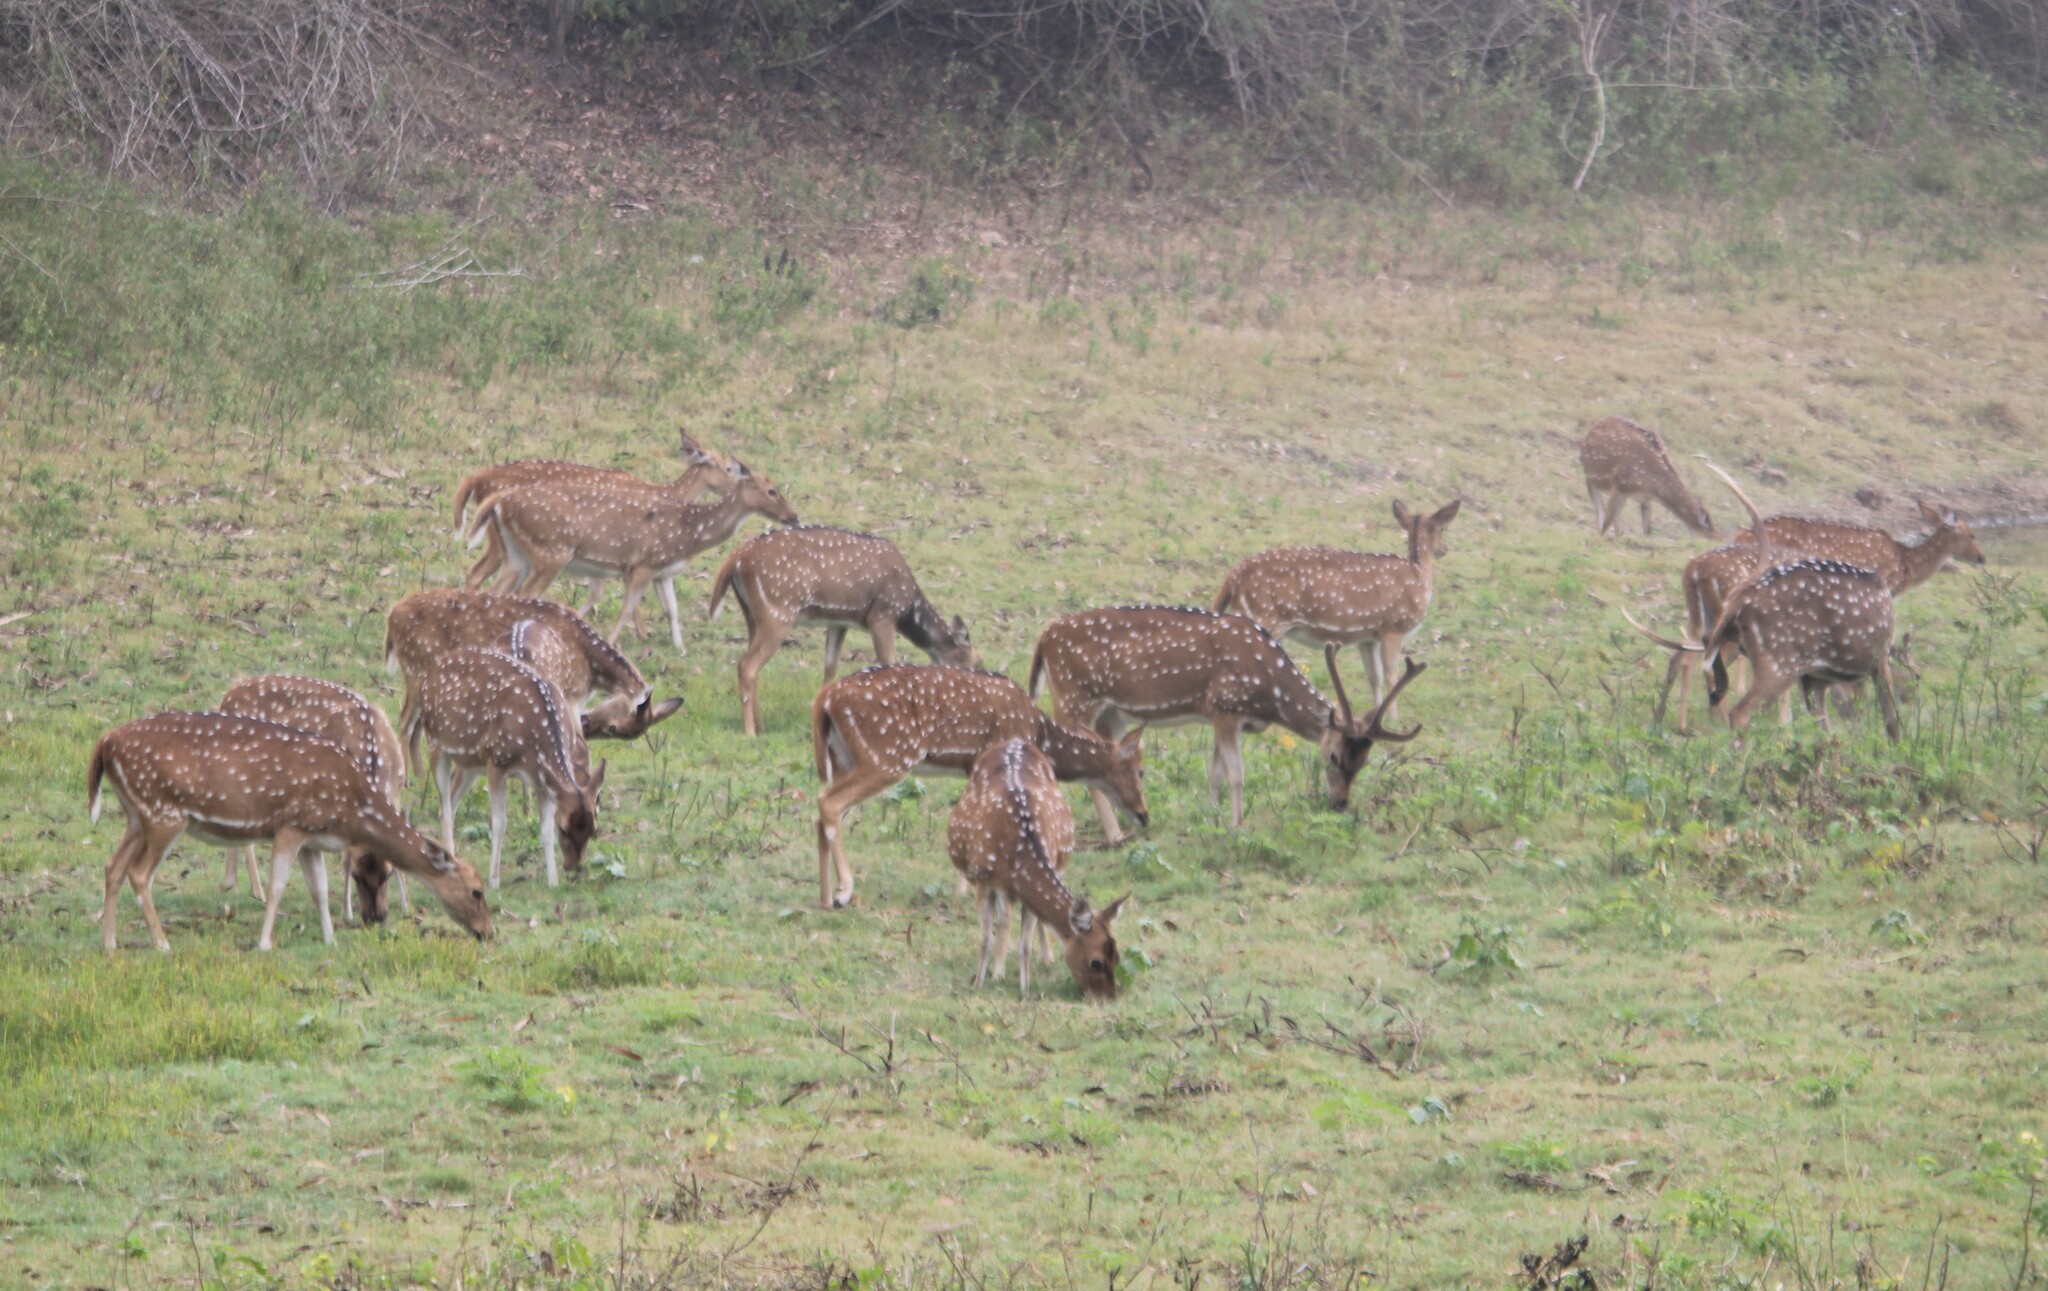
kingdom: Animalia
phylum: Chordata
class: Mammalia
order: Artiodactyla
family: Cervidae
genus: Axis
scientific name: Axis axis
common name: Chital
